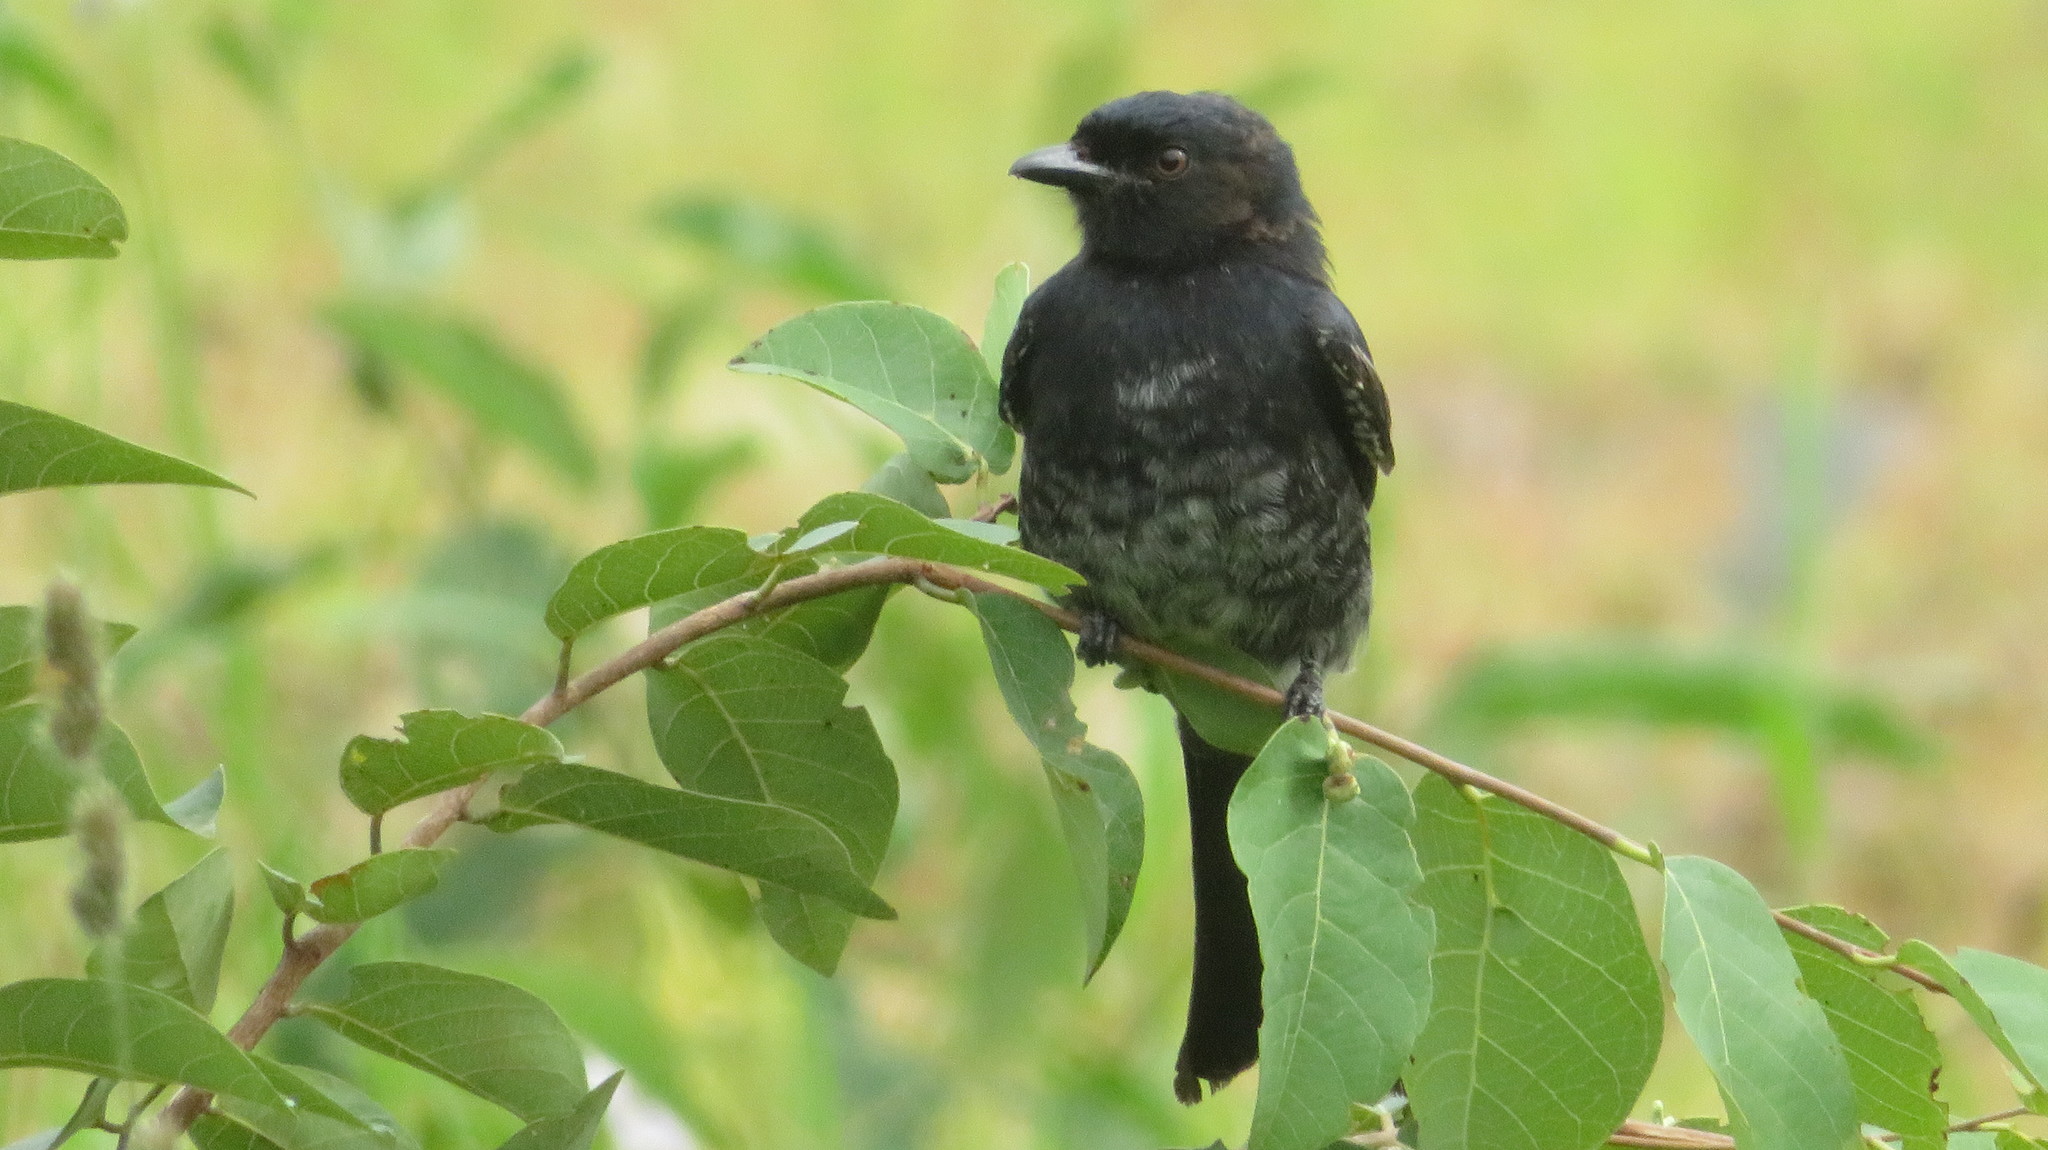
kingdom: Animalia
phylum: Chordata
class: Aves
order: Passeriformes
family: Dicruridae
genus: Dicrurus
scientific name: Dicrurus adsimilis
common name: Fork-tailed drongo
